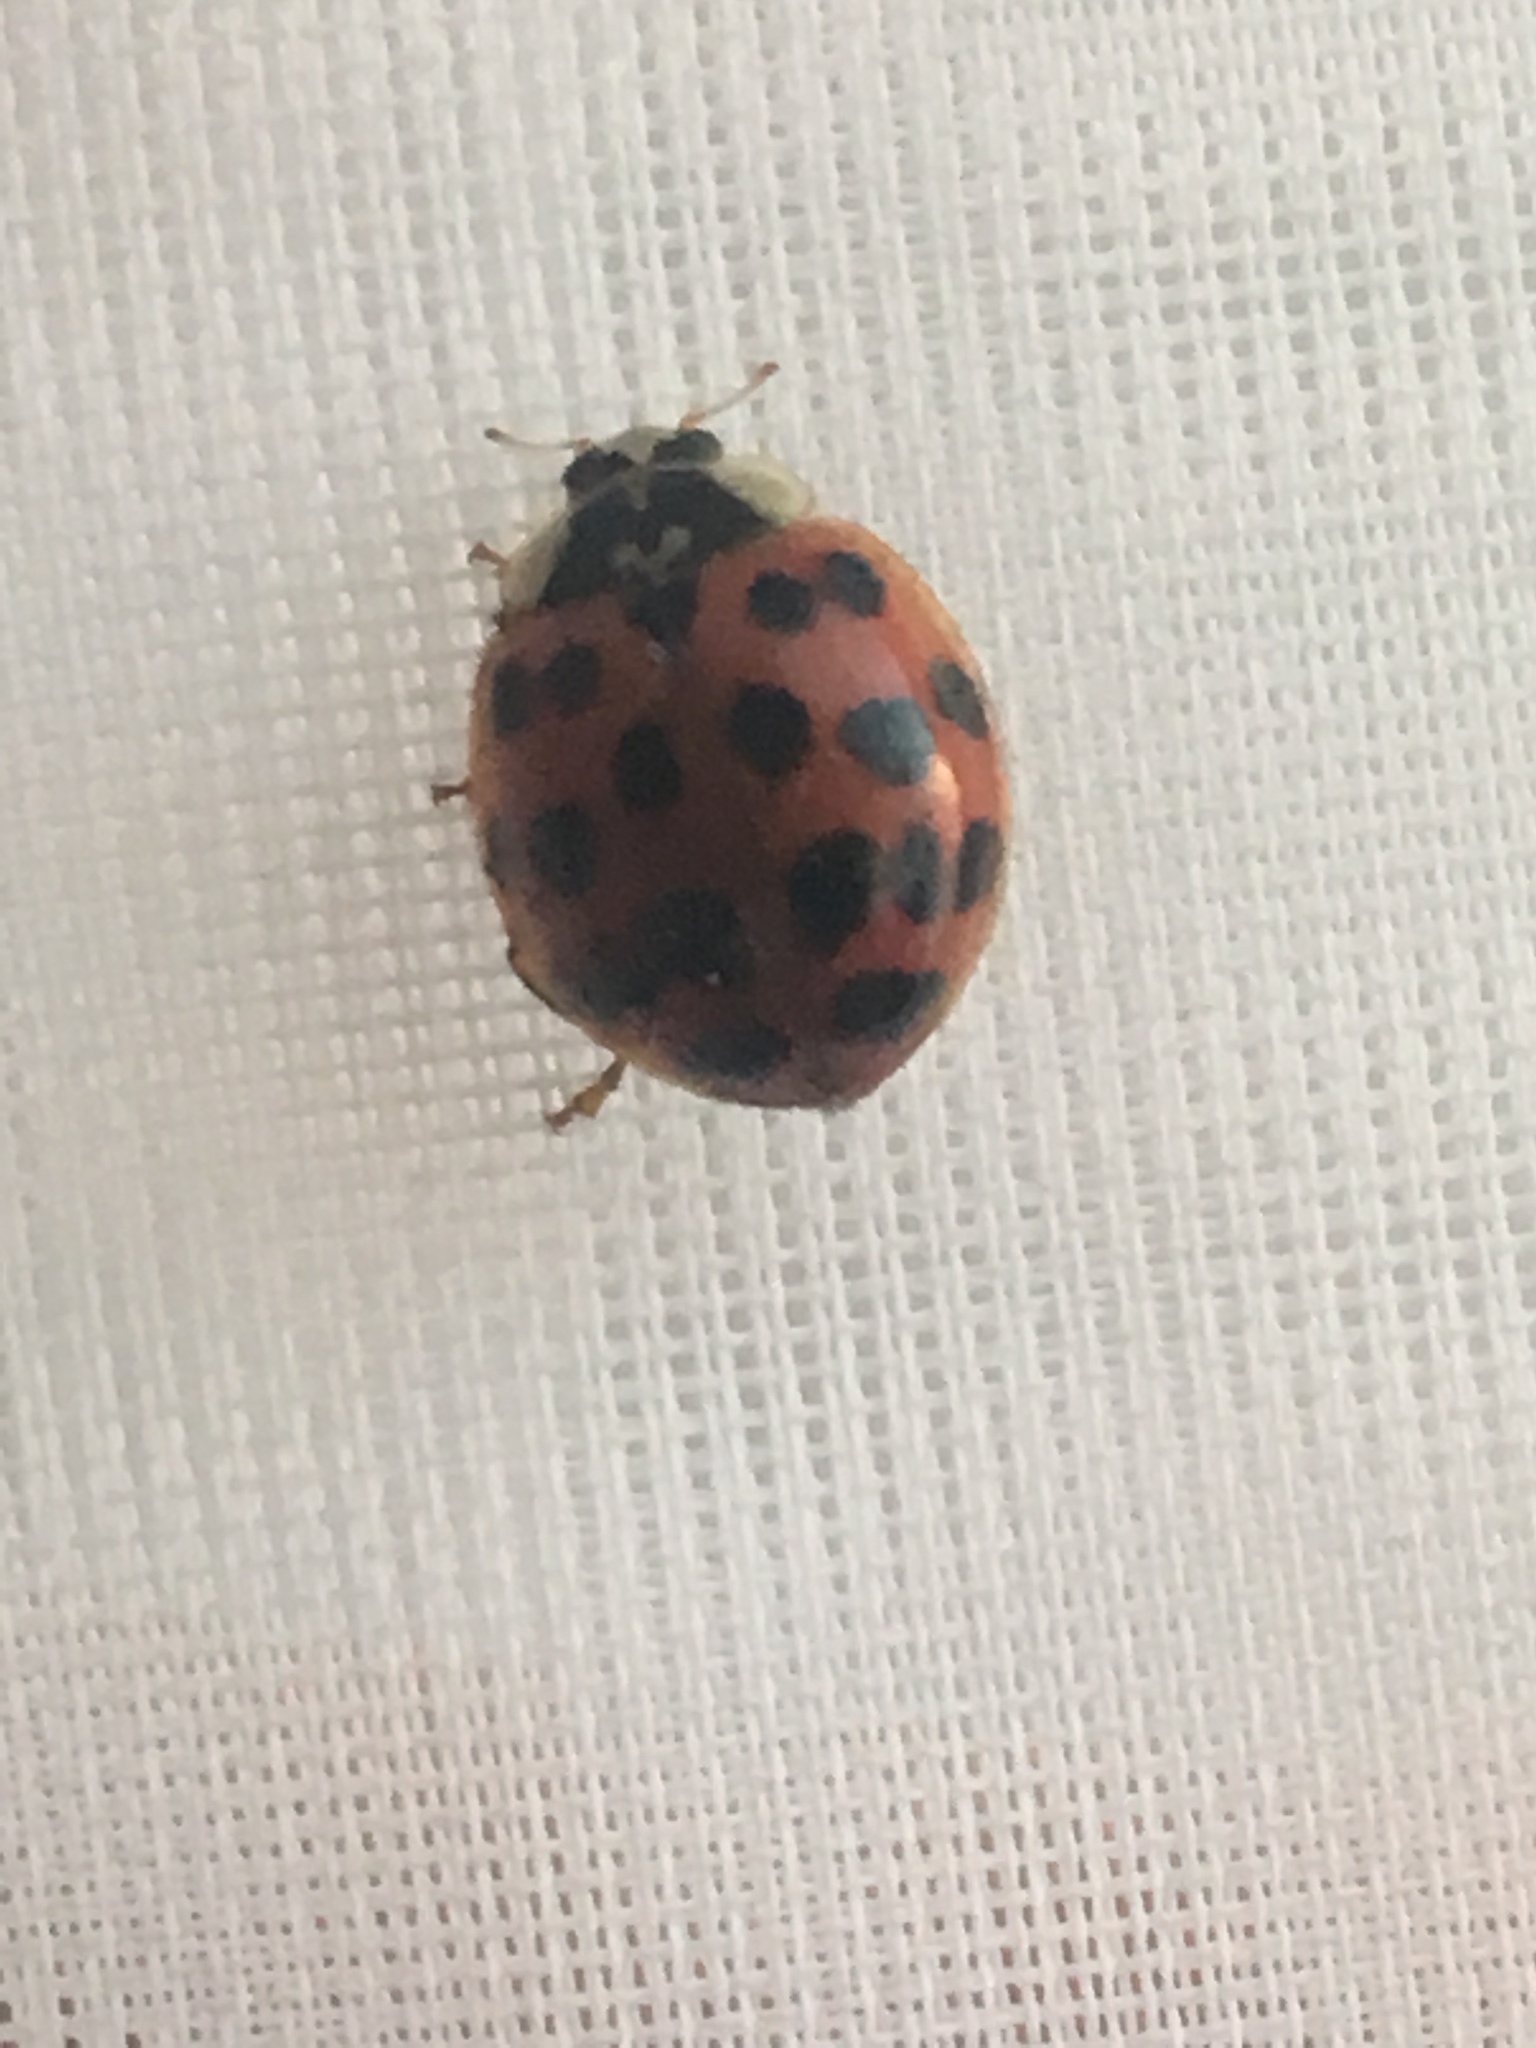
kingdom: Animalia
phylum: Arthropoda
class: Insecta
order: Coleoptera
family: Coccinellidae
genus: Harmonia
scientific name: Harmonia axyridis
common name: Harlequin ladybird
